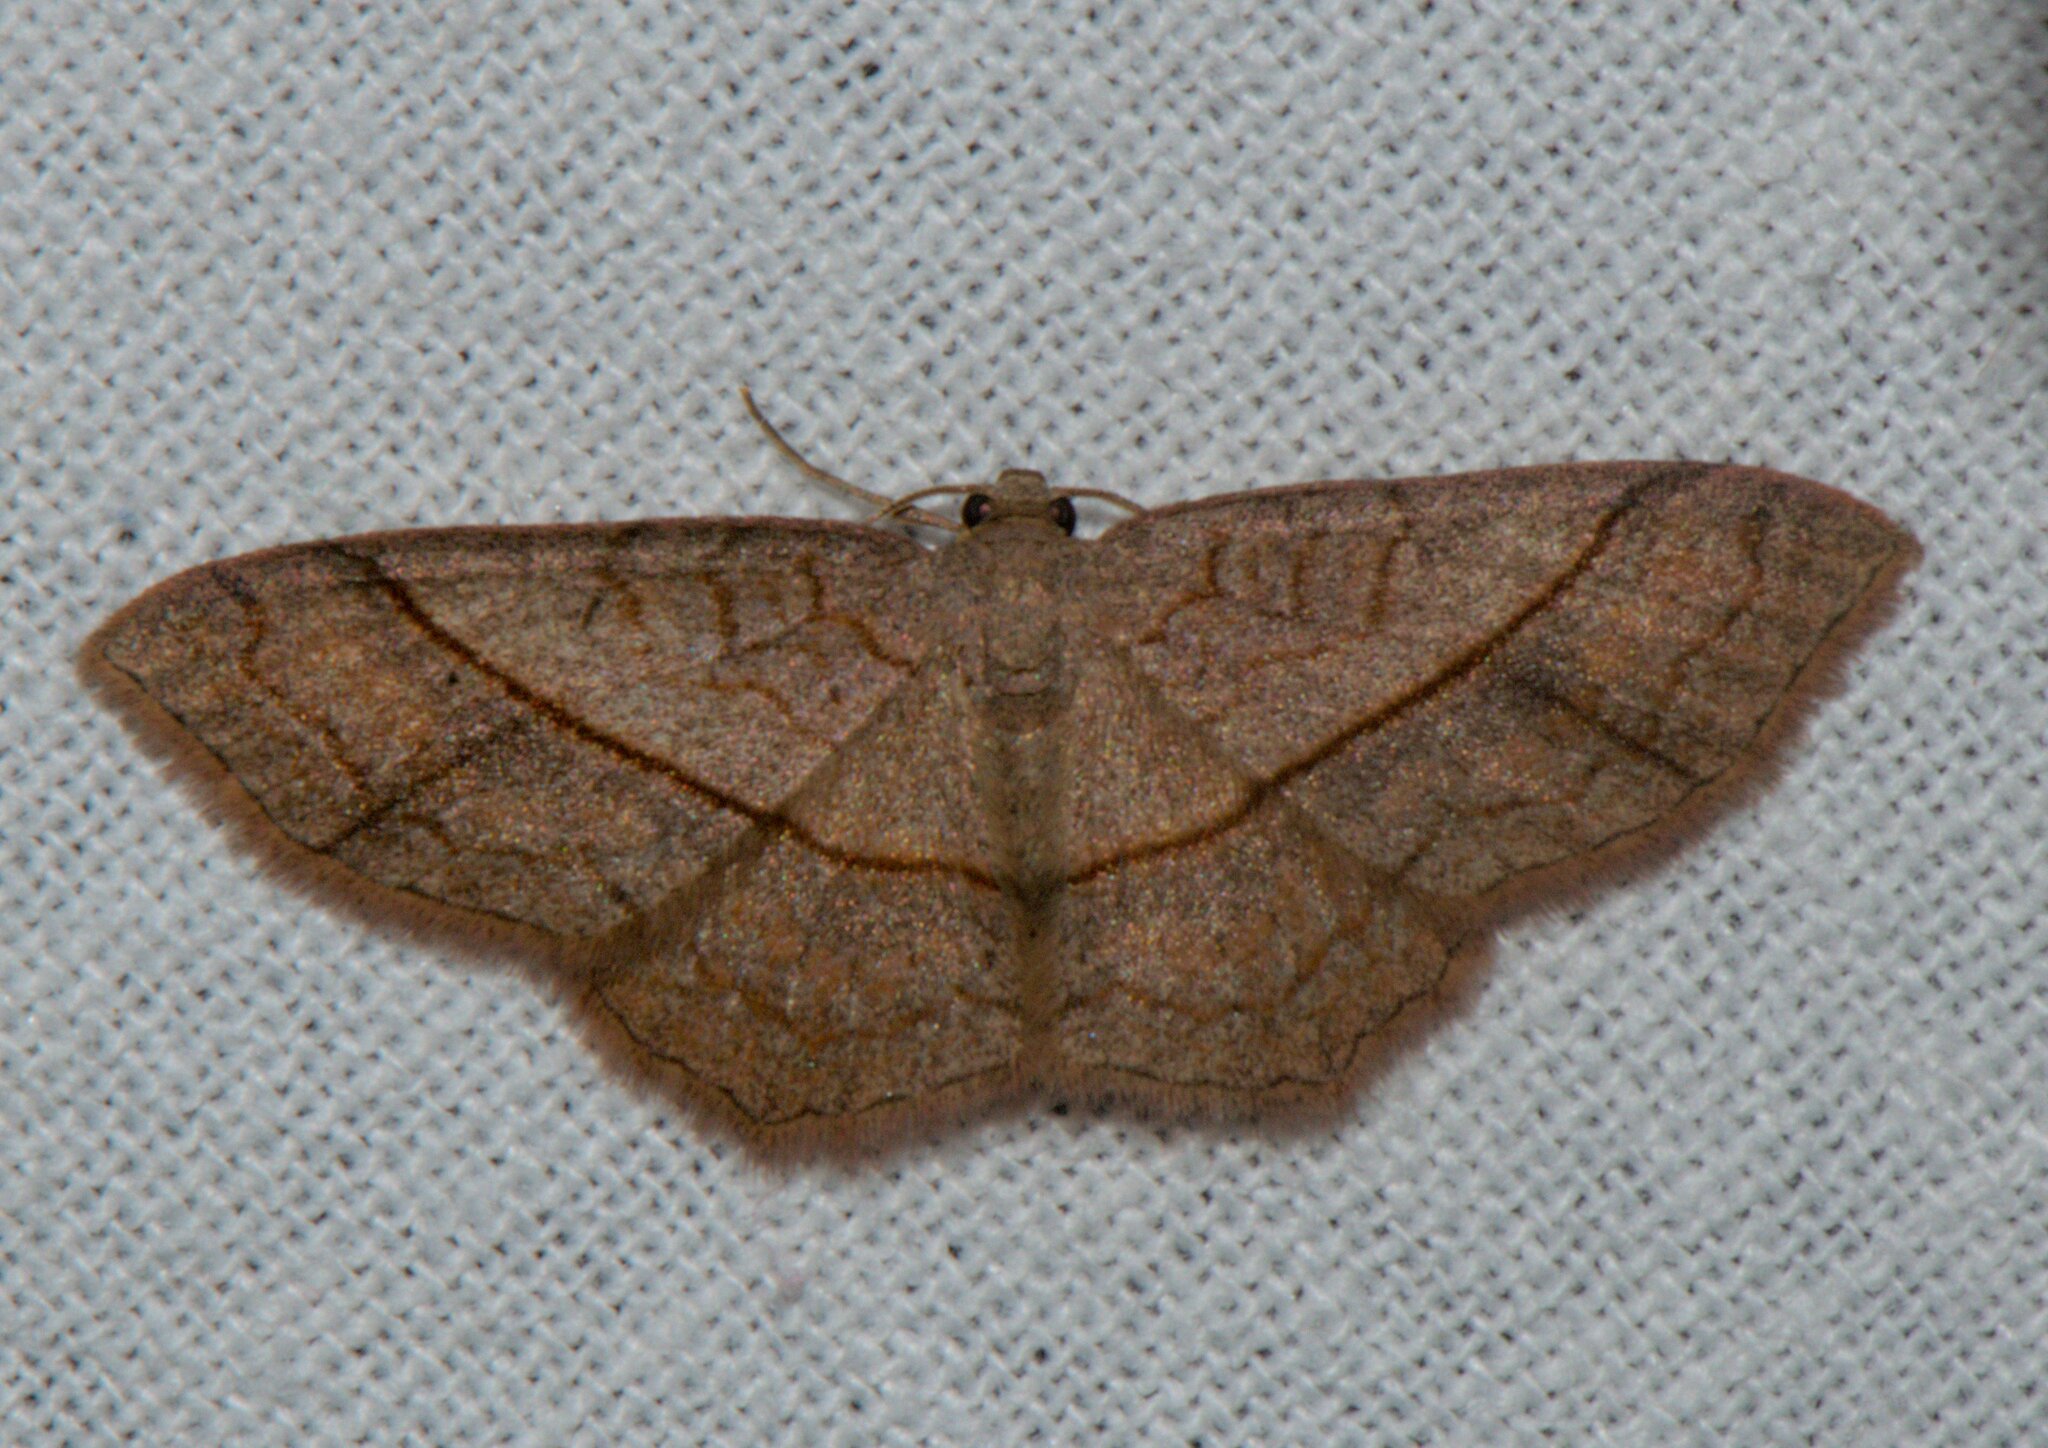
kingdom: Animalia
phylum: Arthropoda
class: Insecta
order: Lepidoptera
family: Geometridae
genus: Hydrelia
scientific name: Hydrelia sericea
